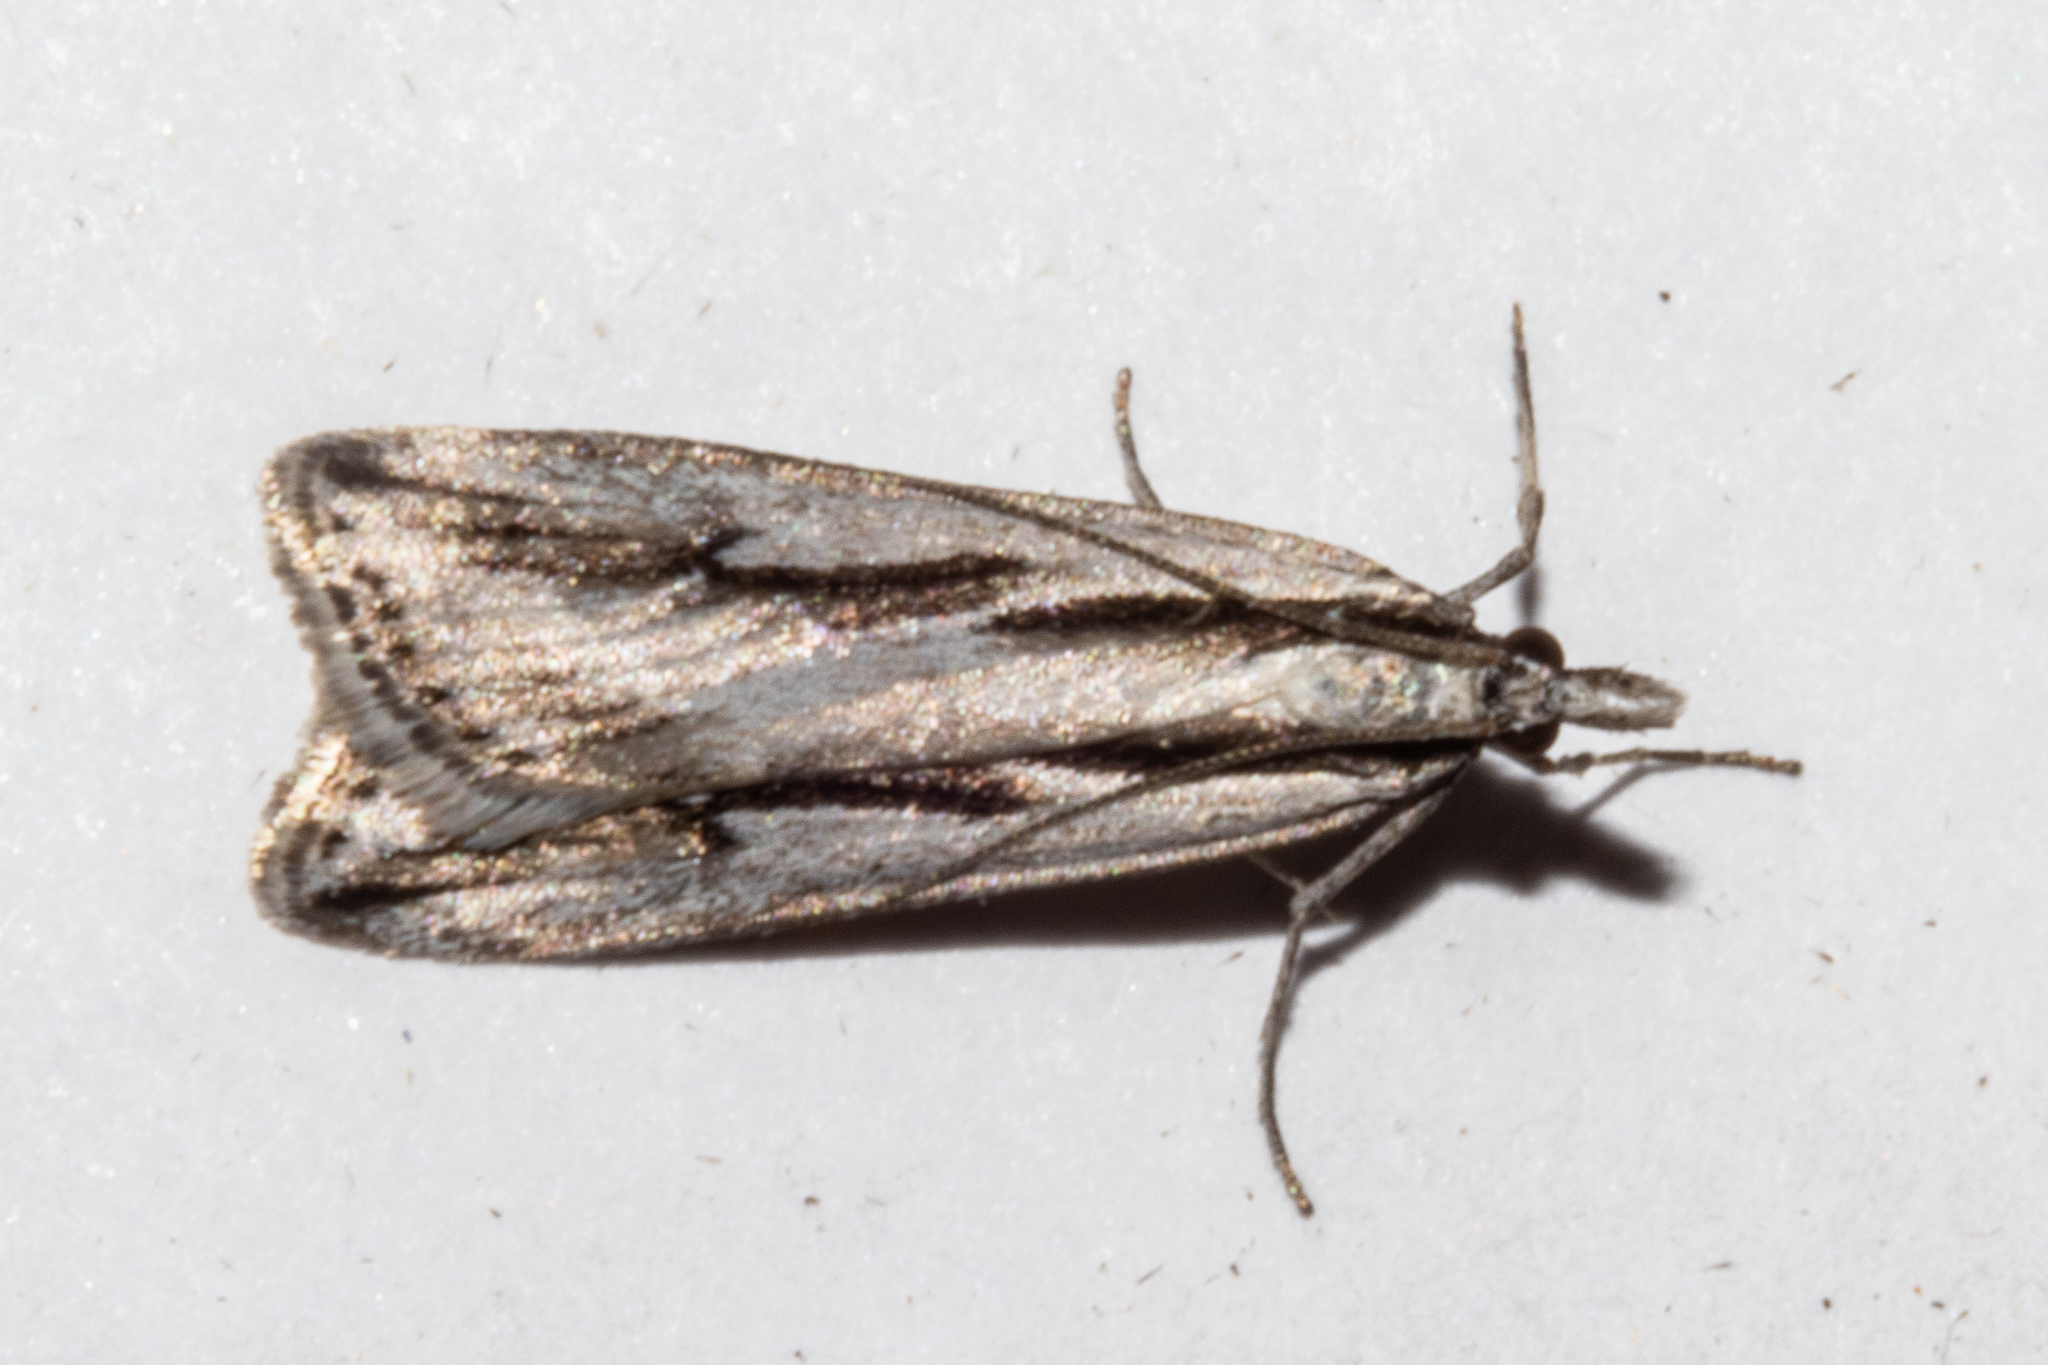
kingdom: Animalia
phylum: Arthropoda
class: Insecta
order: Lepidoptera
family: Crambidae
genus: Scoparia
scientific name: Scoparia rotuellus
